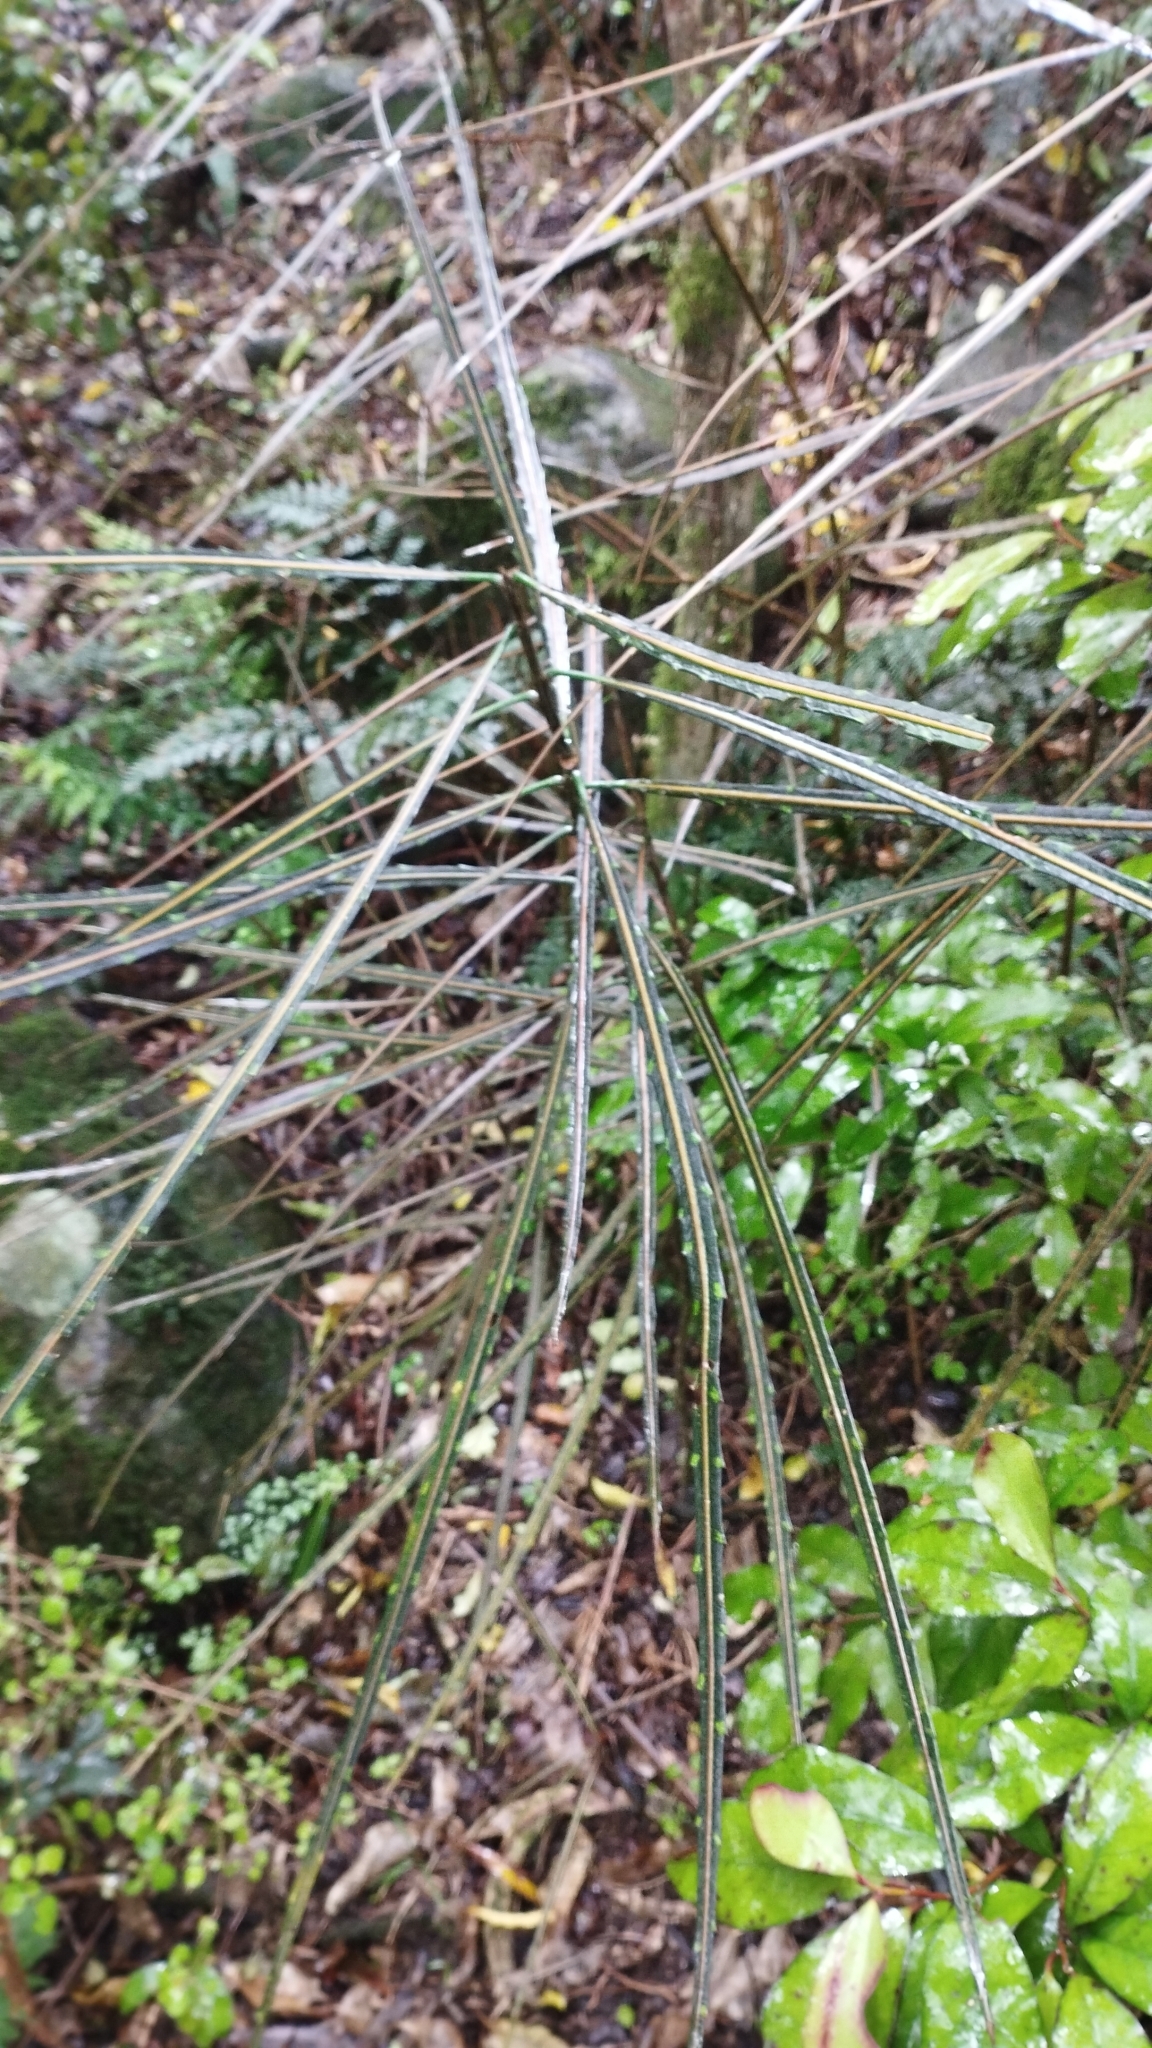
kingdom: Plantae
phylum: Tracheophyta
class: Magnoliopsida
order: Apiales
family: Araliaceae
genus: Pseudopanax
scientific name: Pseudopanax crassifolius
